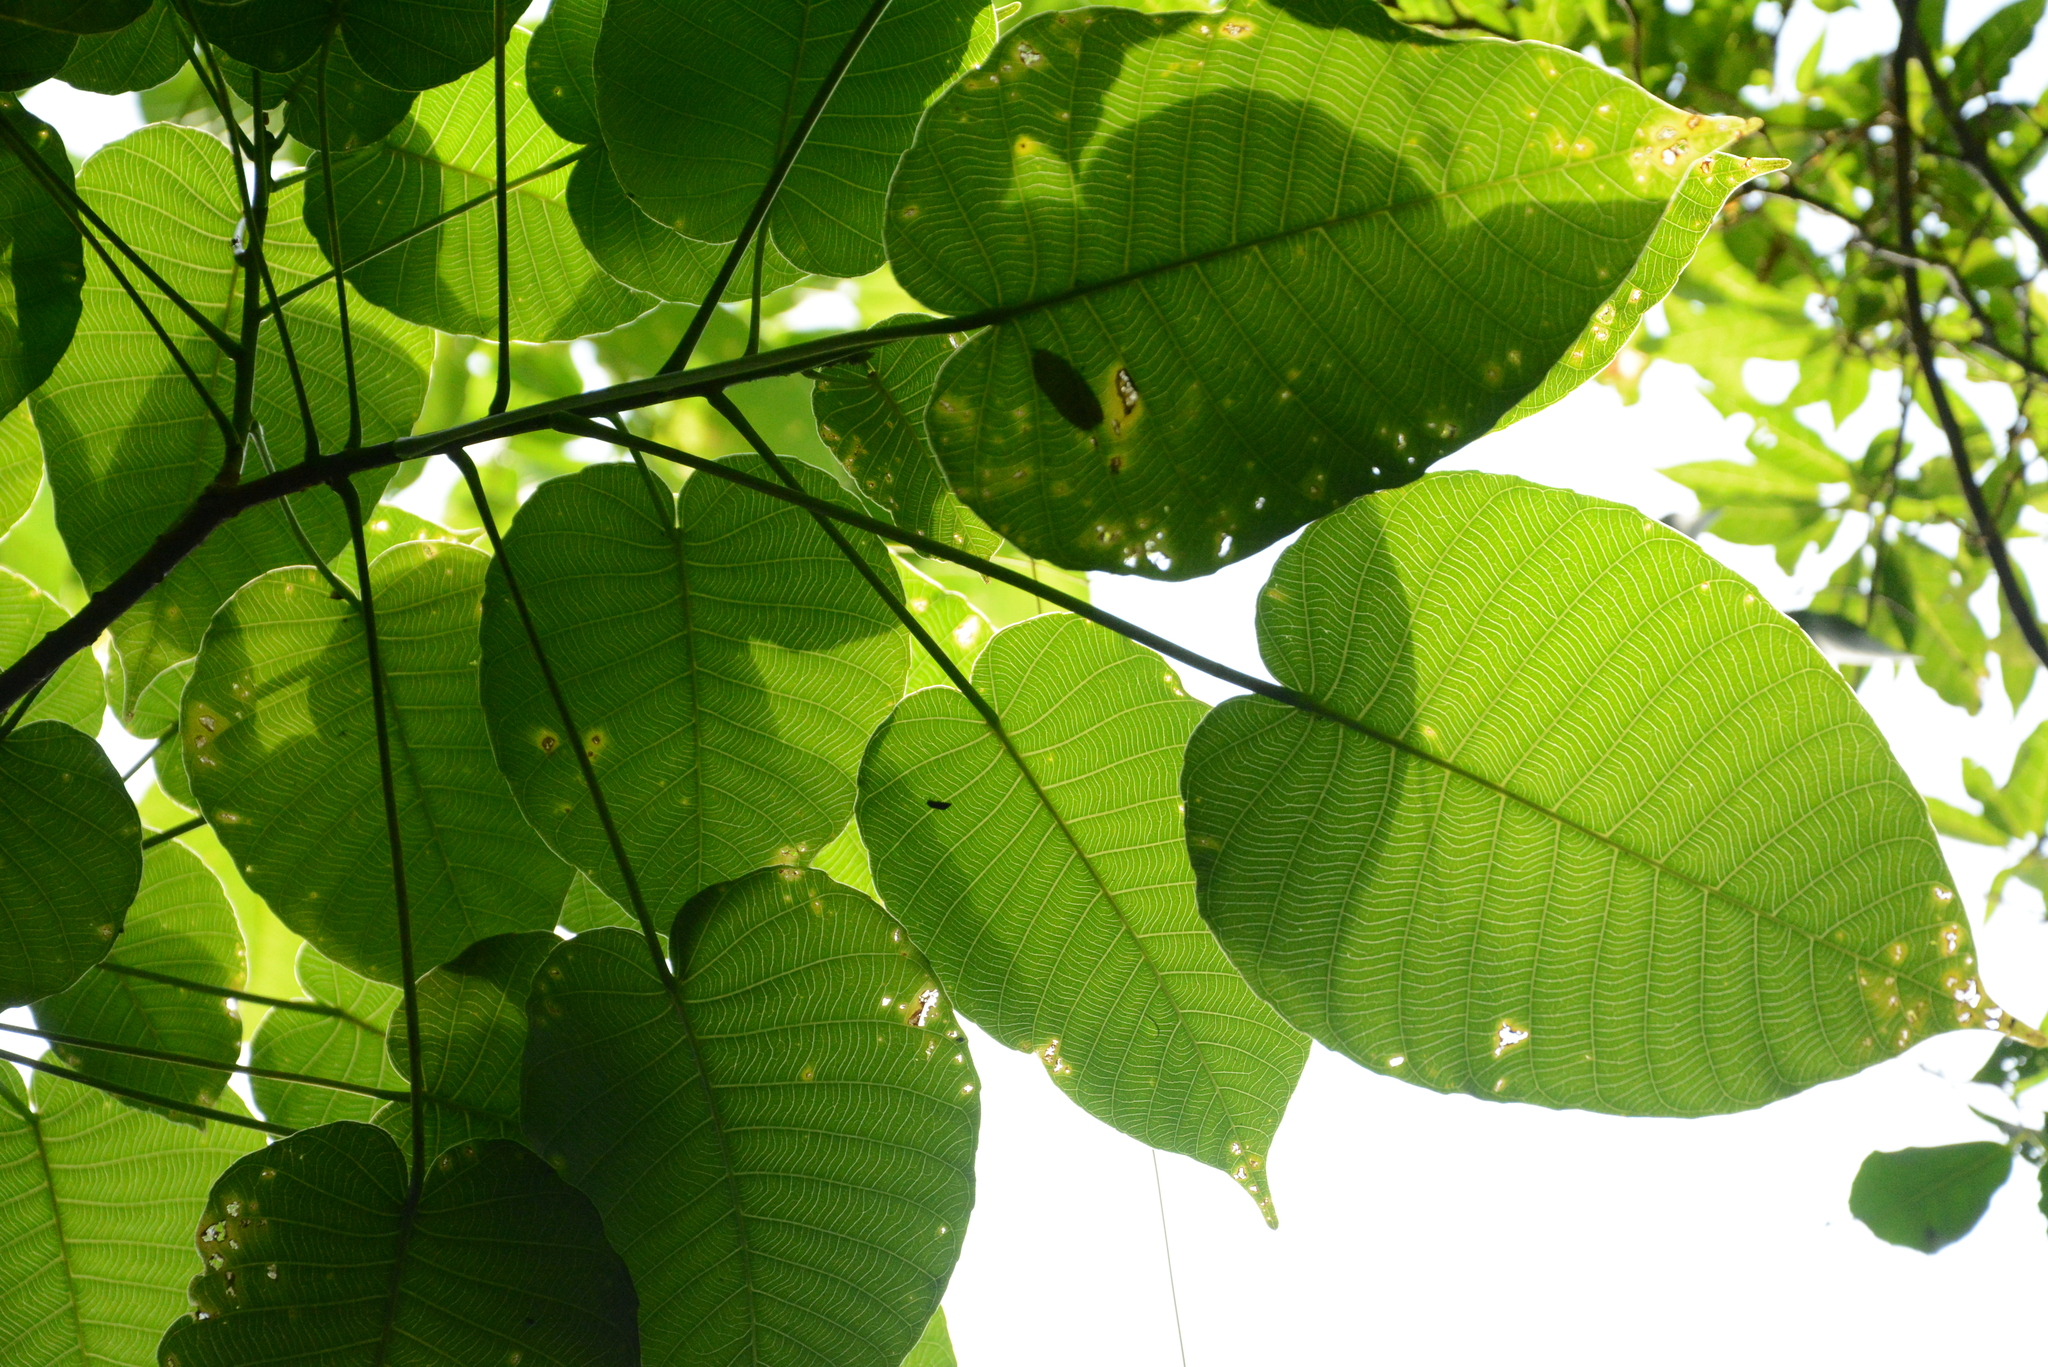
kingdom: Plantae
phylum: Tracheophyta
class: Magnoliopsida
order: Malpighiales
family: Euphorbiaceae
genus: Hura
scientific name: Hura crepitans
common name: Sandboxtree
